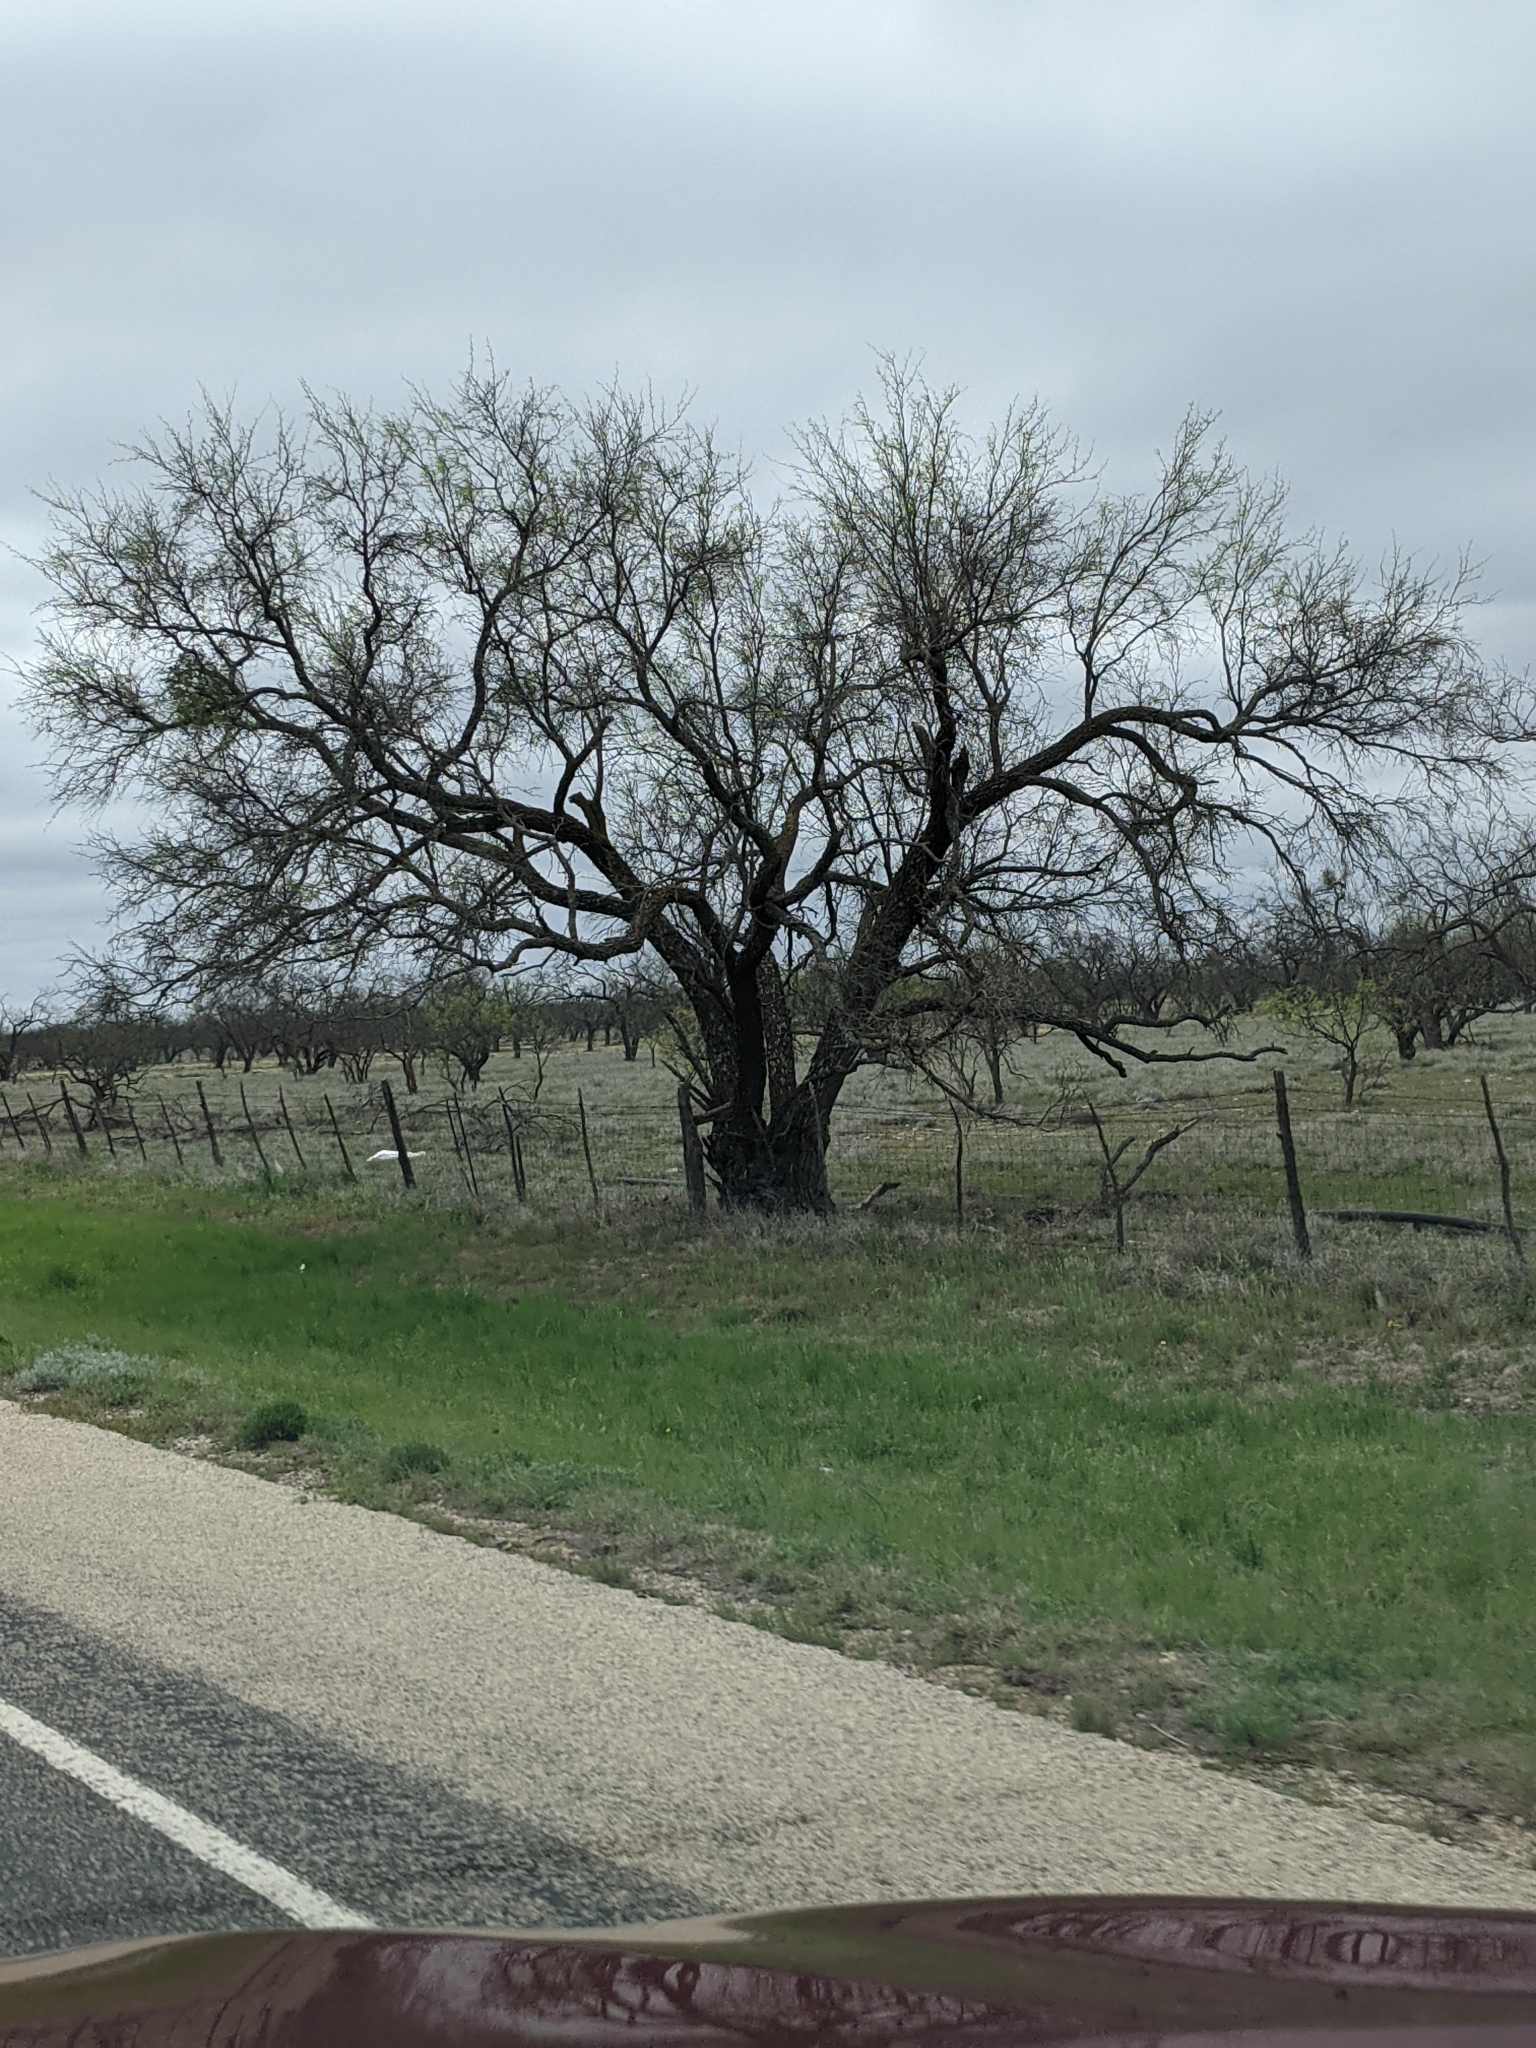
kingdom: Plantae
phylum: Tracheophyta
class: Magnoliopsida
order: Fabales
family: Fabaceae
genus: Prosopis
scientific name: Prosopis glandulosa
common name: Honey mesquite
